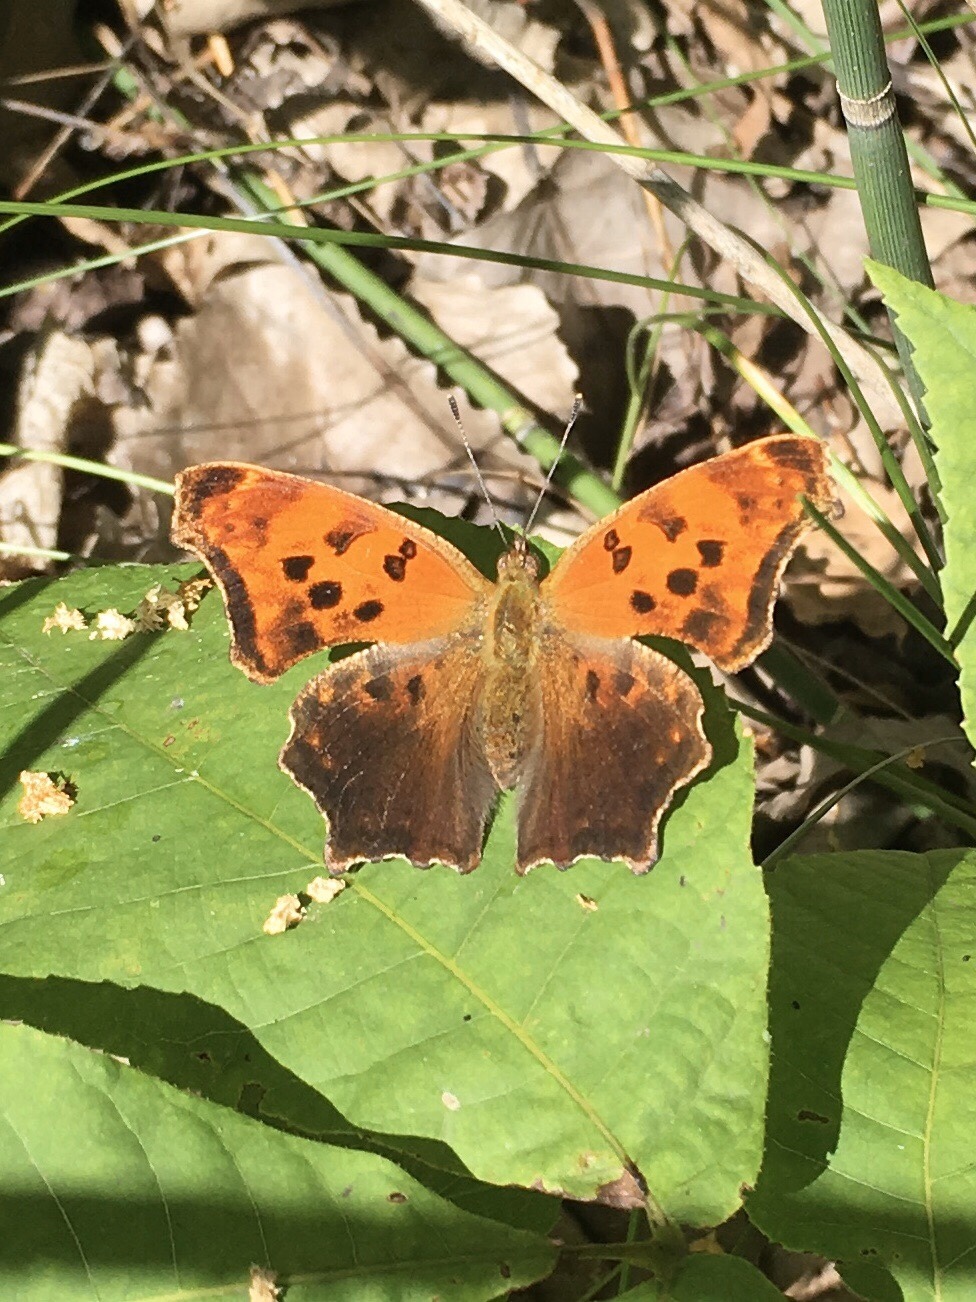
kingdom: Animalia
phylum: Arthropoda
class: Insecta
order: Lepidoptera
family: Nymphalidae
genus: Polygonia
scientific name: Polygonia comma
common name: Eastern comma
